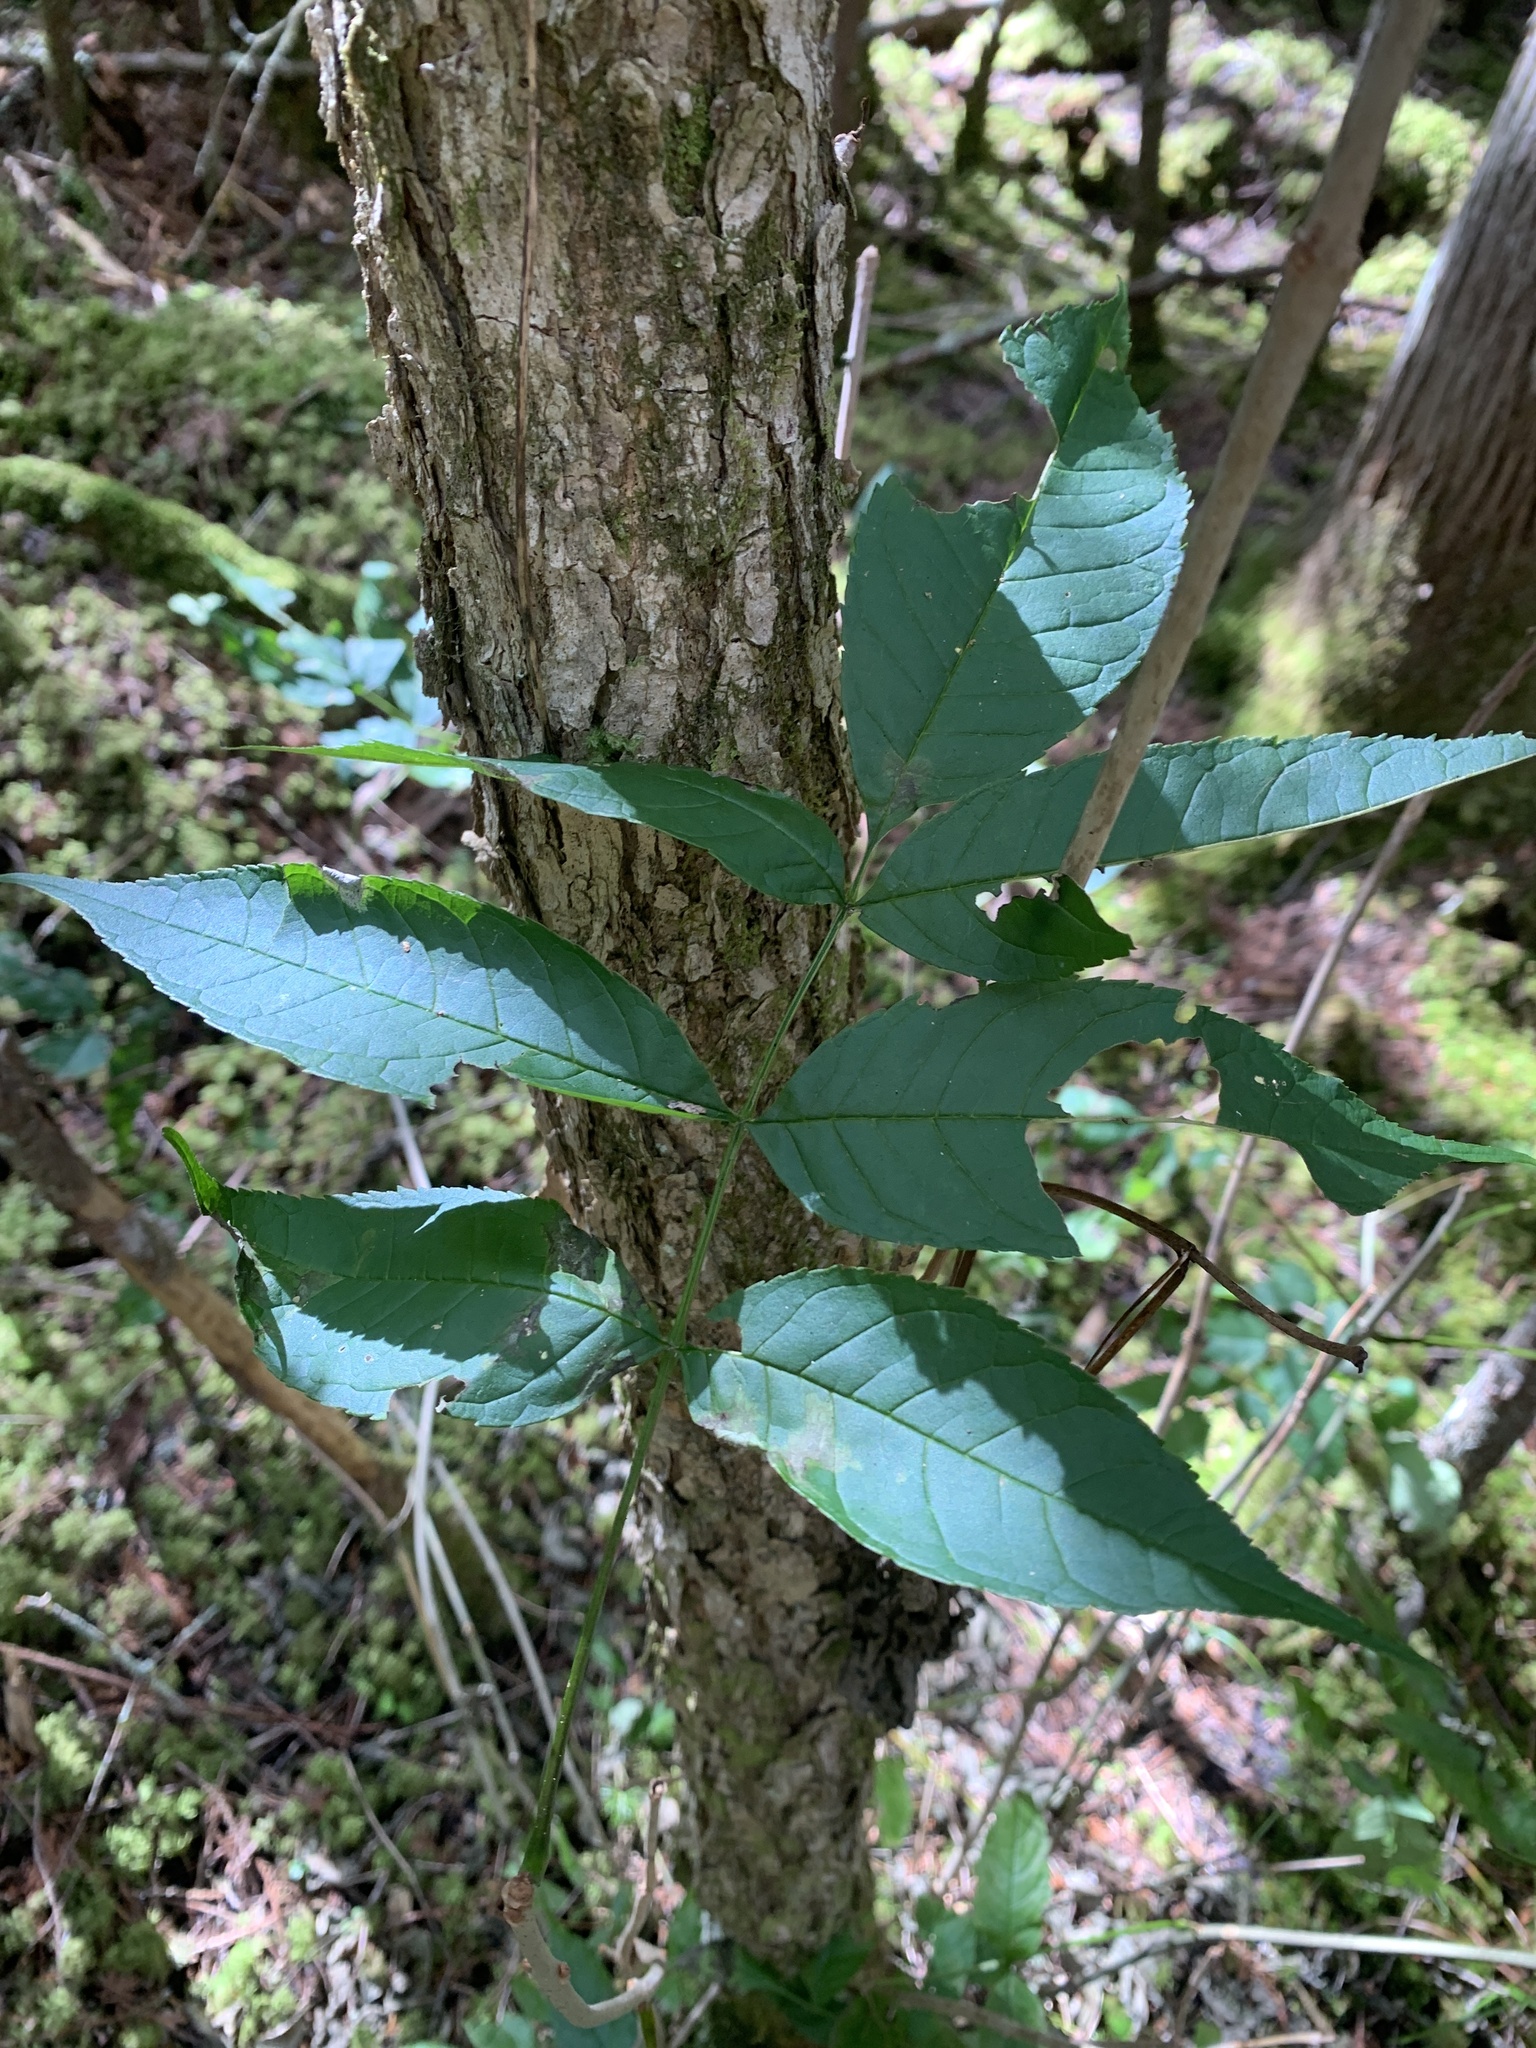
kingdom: Plantae
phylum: Tracheophyta
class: Magnoliopsida
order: Lamiales
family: Oleaceae
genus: Fraxinus
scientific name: Fraxinus nigra
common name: Black ash
